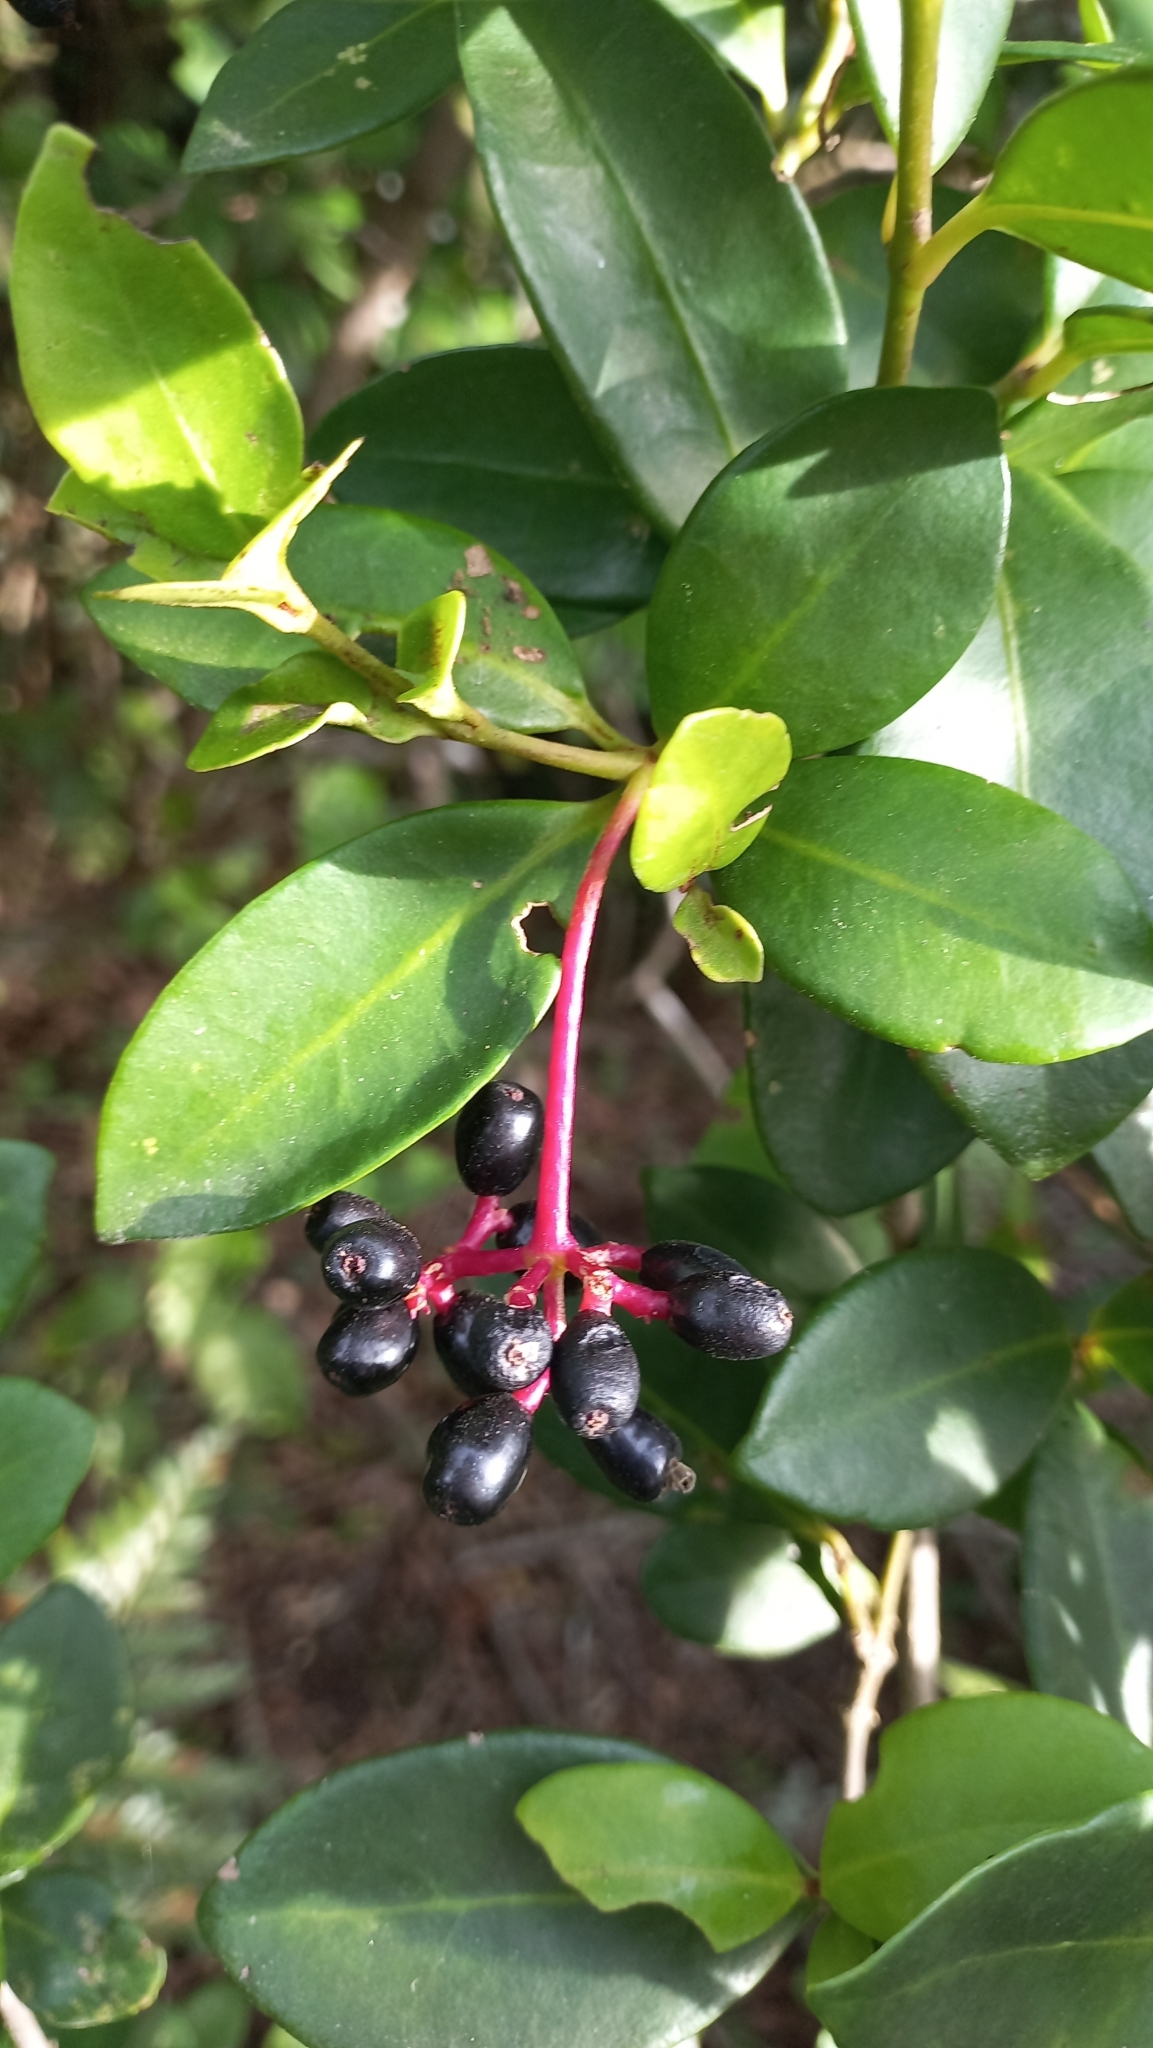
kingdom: Plantae
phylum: Tracheophyta
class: Magnoliopsida
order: Caryophyllales
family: Nyctaginaceae
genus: Guapira
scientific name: Guapira opposita
